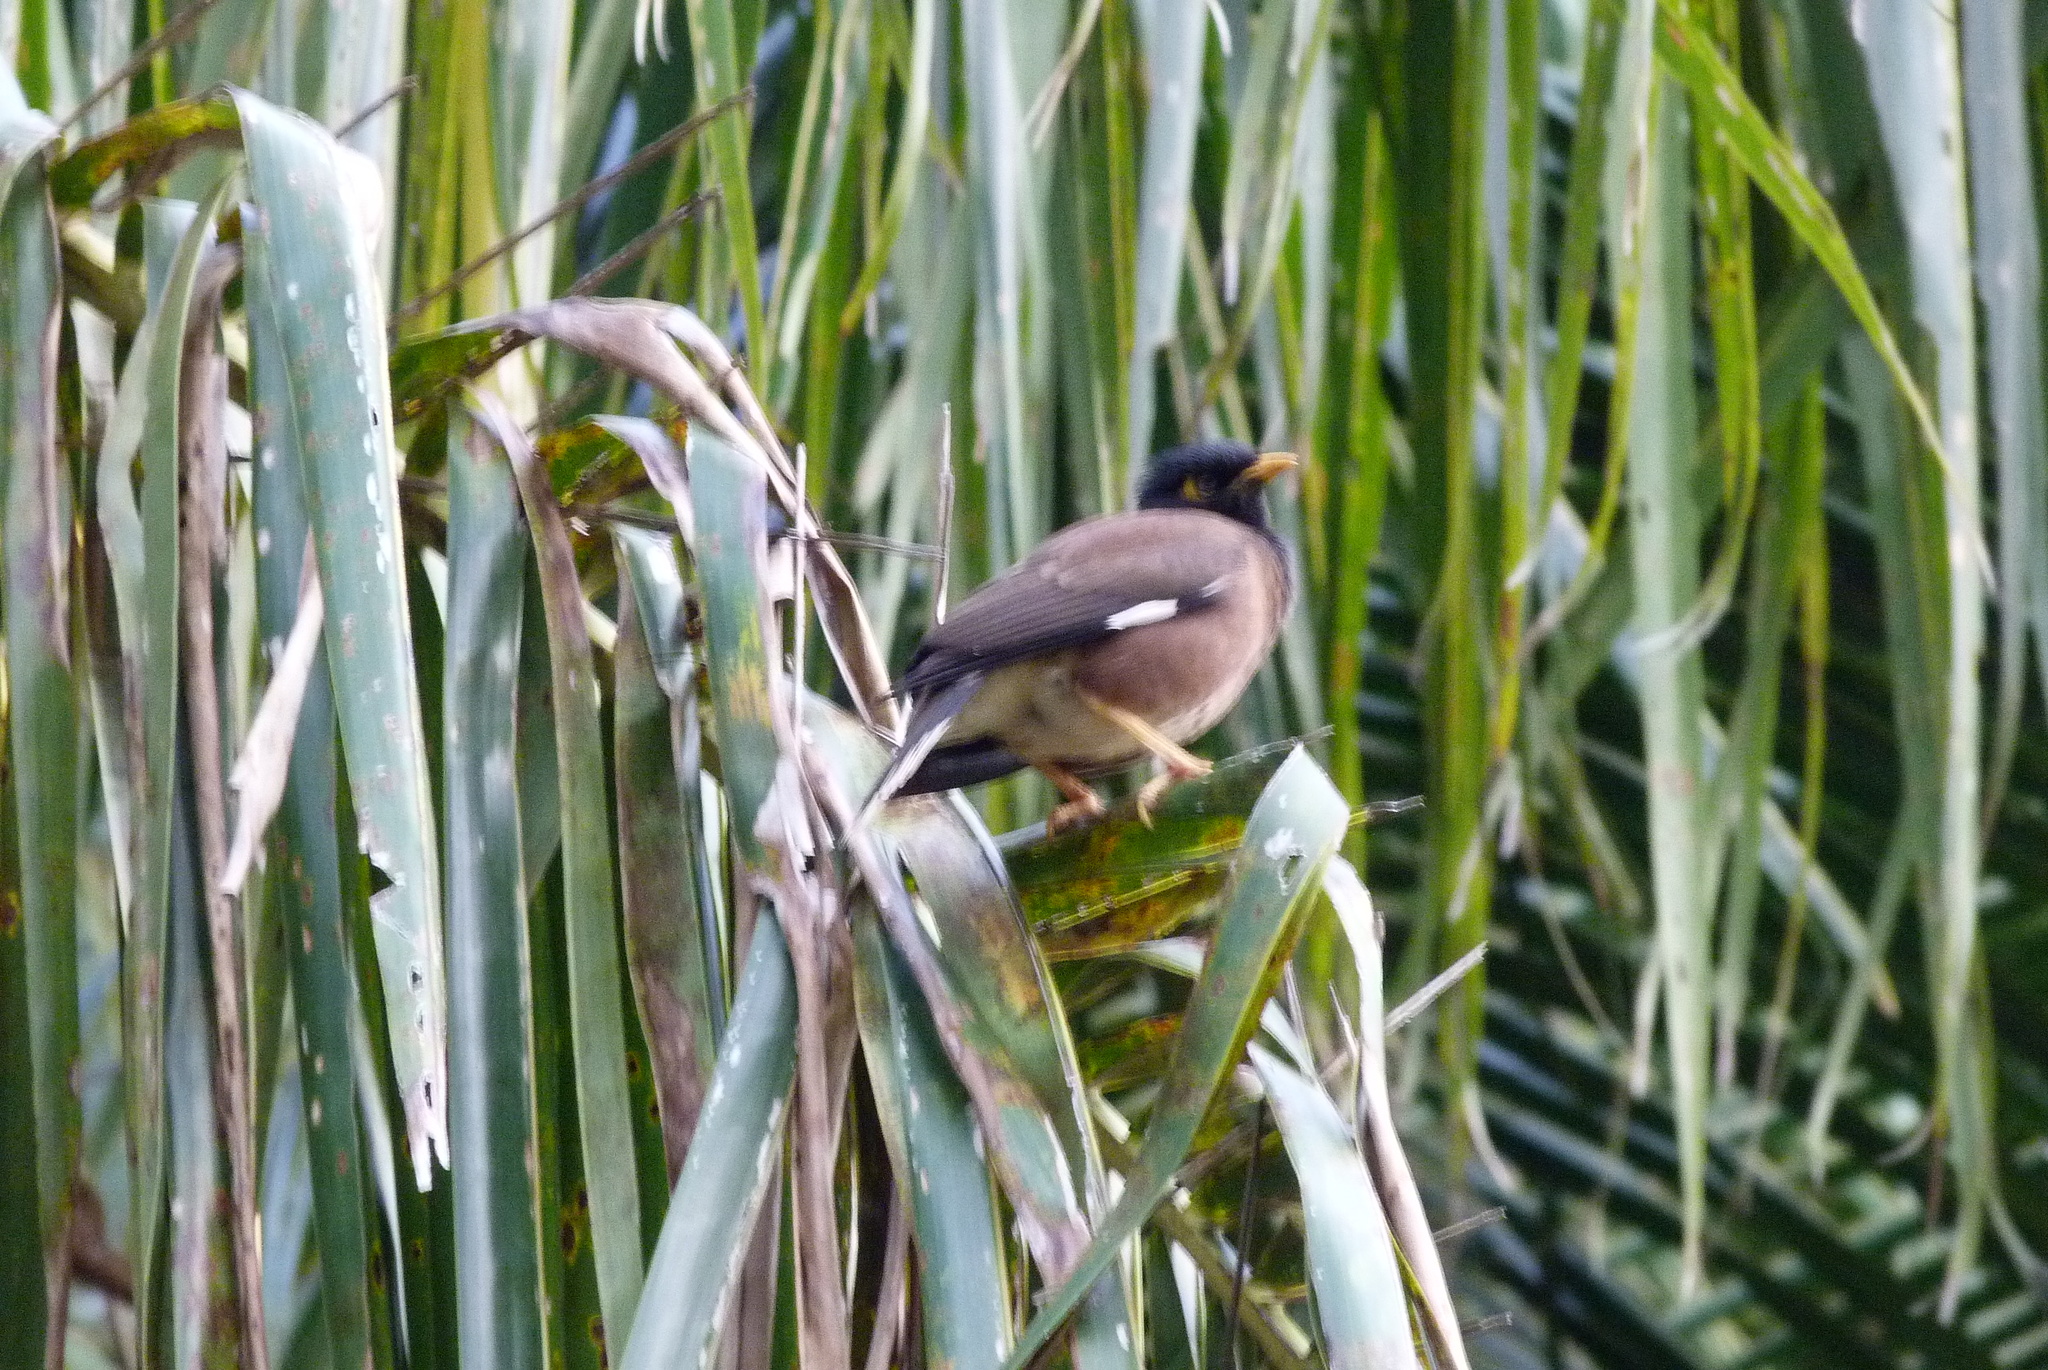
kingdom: Animalia
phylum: Chordata
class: Aves
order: Passeriformes
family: Sturnidae
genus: Acridotheres
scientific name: Acridotheres tristis
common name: Common myna
